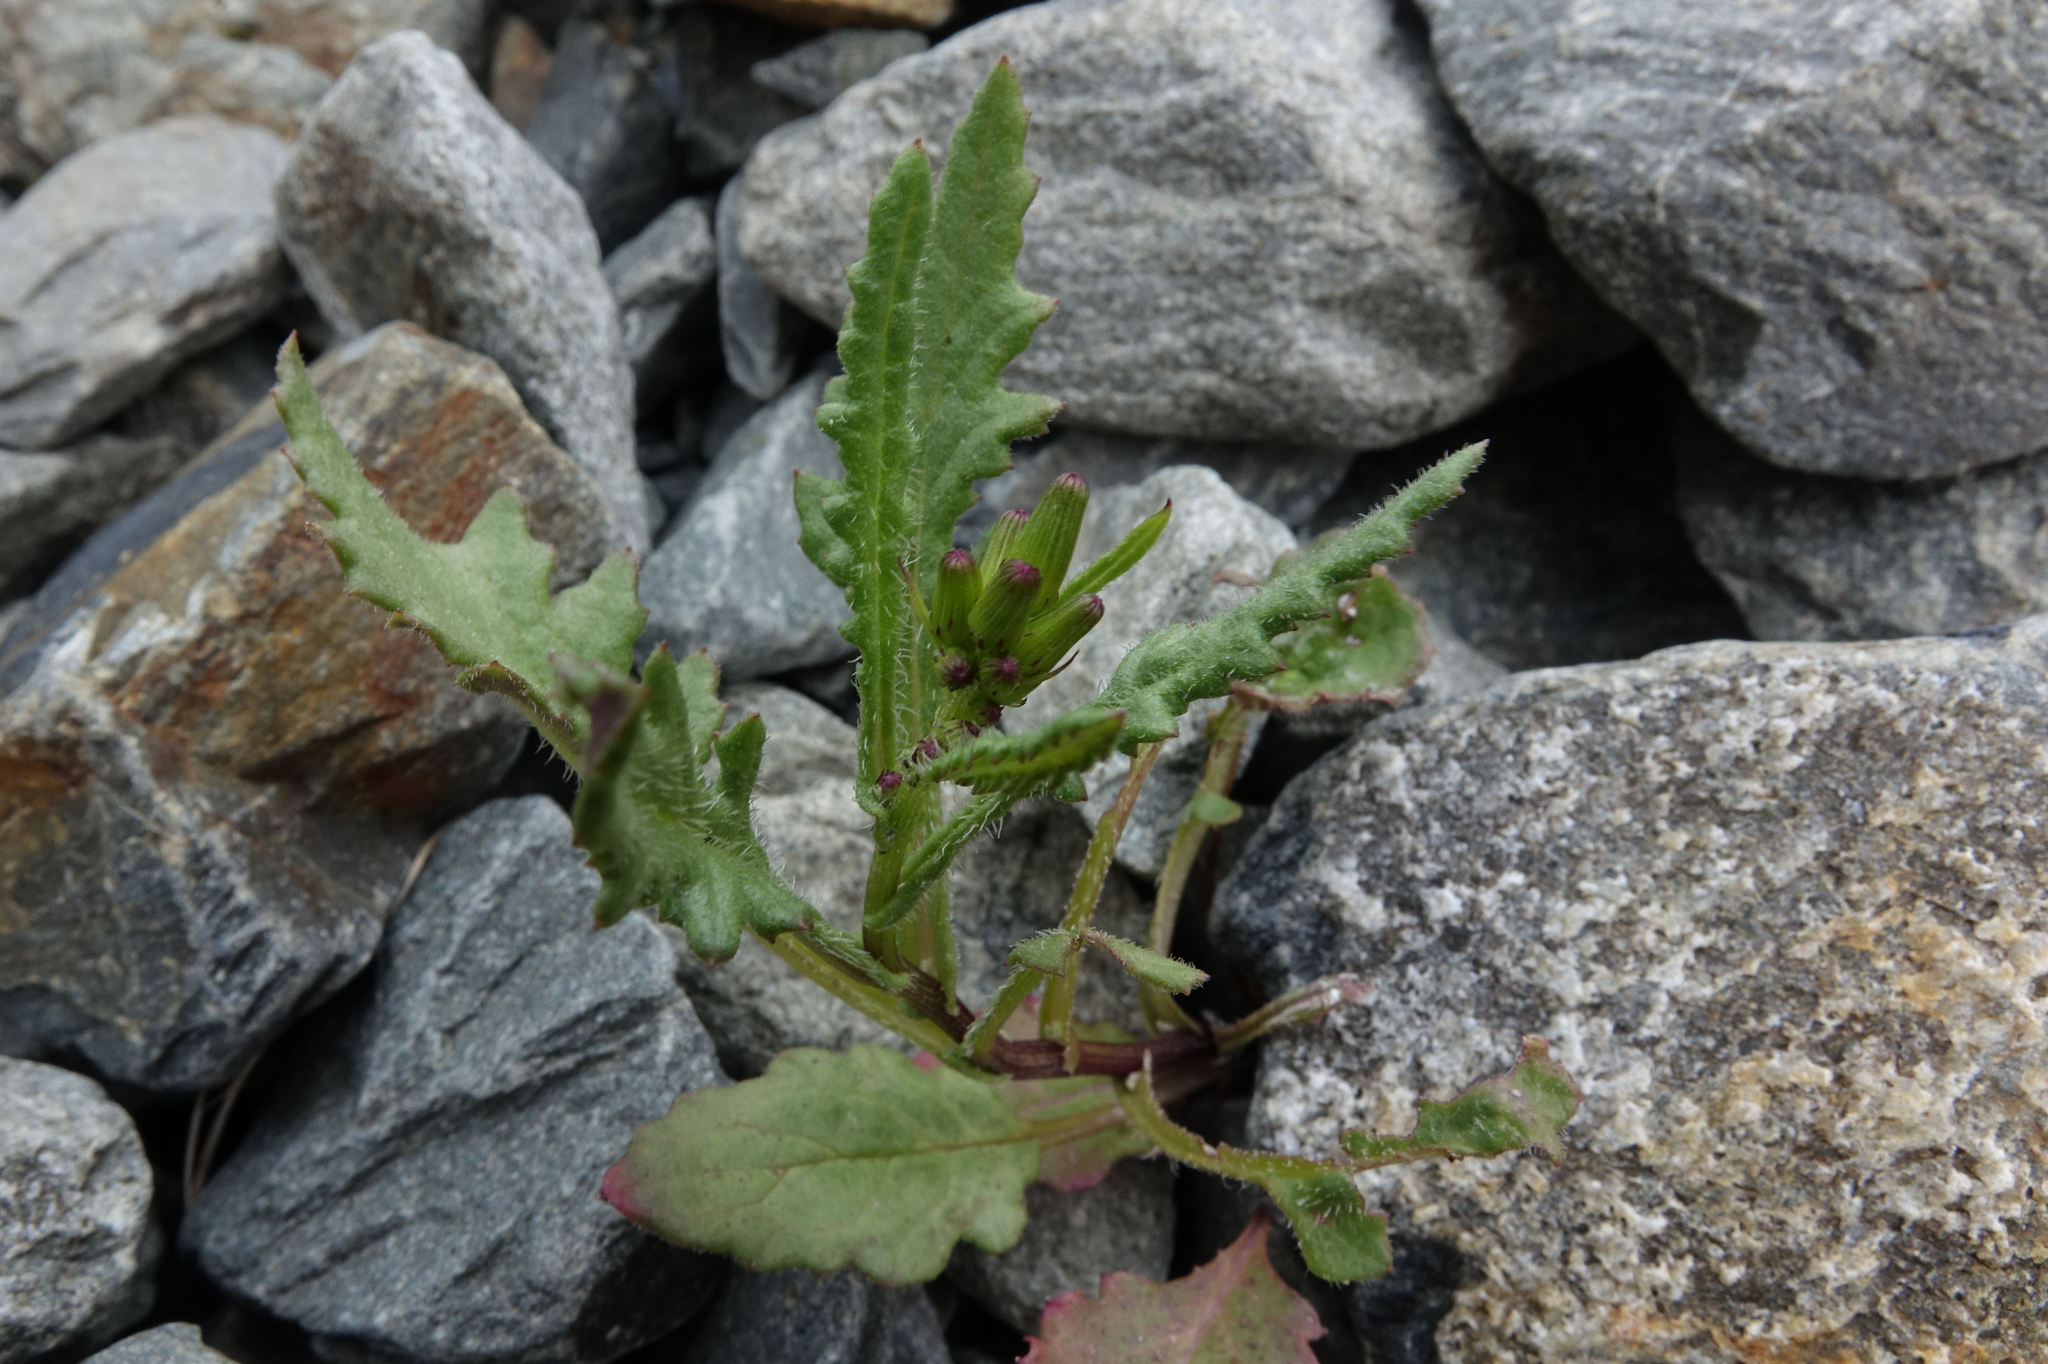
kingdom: Plantae
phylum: Tracheophyta
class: Magnoliopsida
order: Asterales
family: Asteraceae
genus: Senecio
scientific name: Senecio wairauensis
